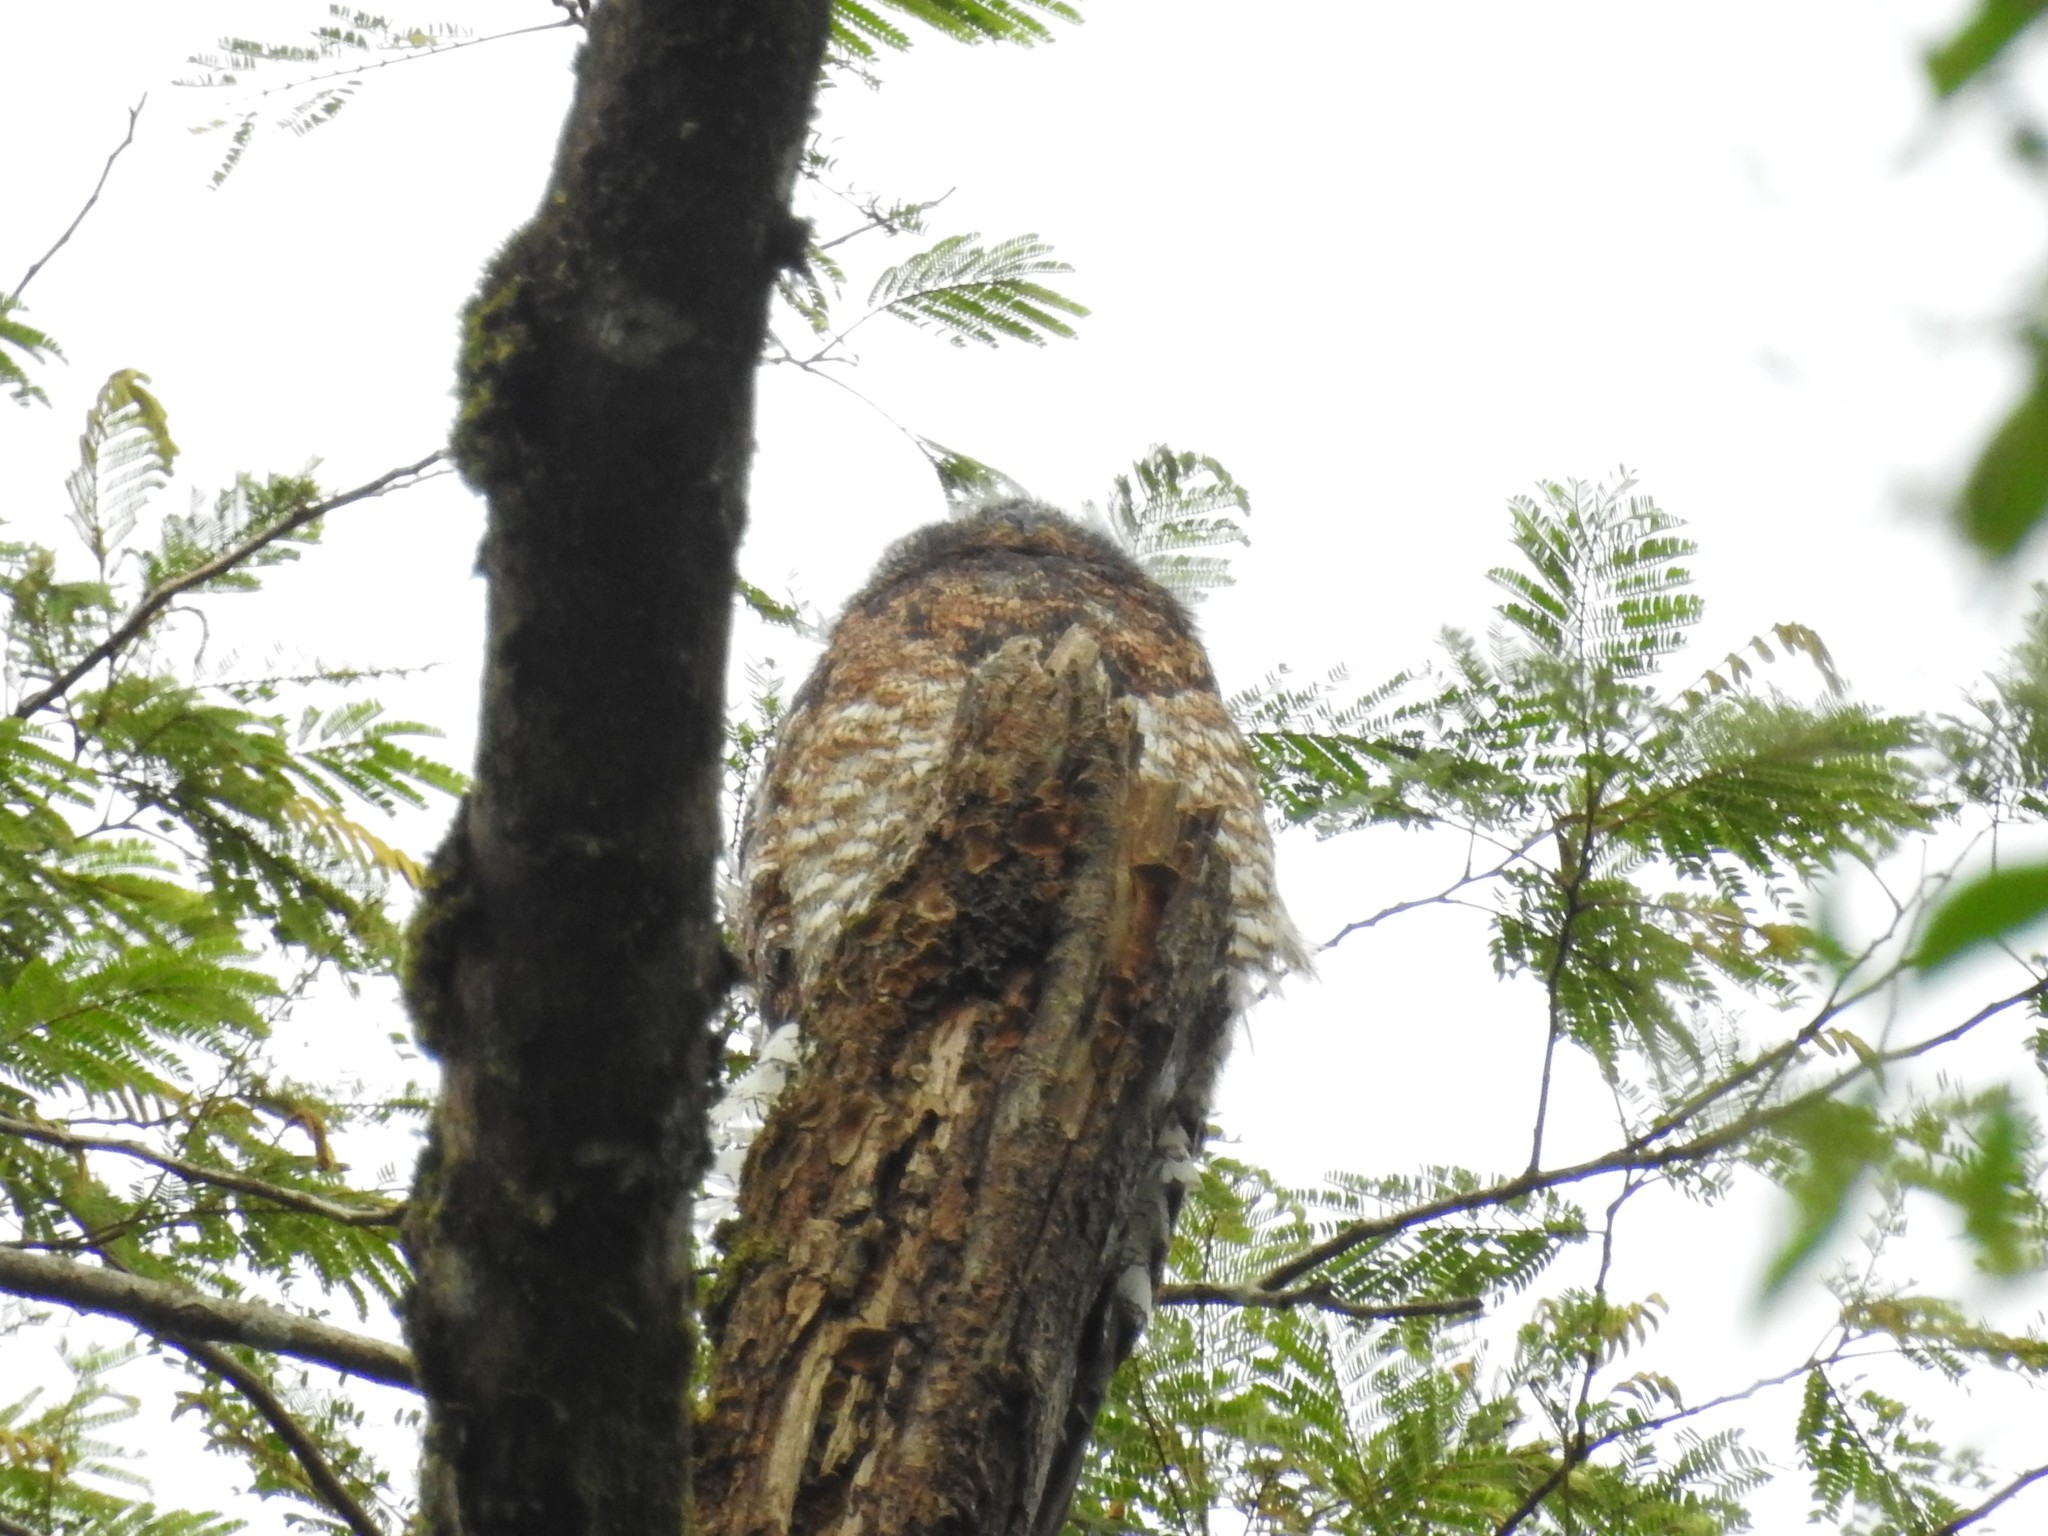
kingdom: Animalia
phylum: Chordata
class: Aves
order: Nyctibiiformes
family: Nyctibiidae
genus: Nyctibius
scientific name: Nyctibius grandis
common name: Great potoo
